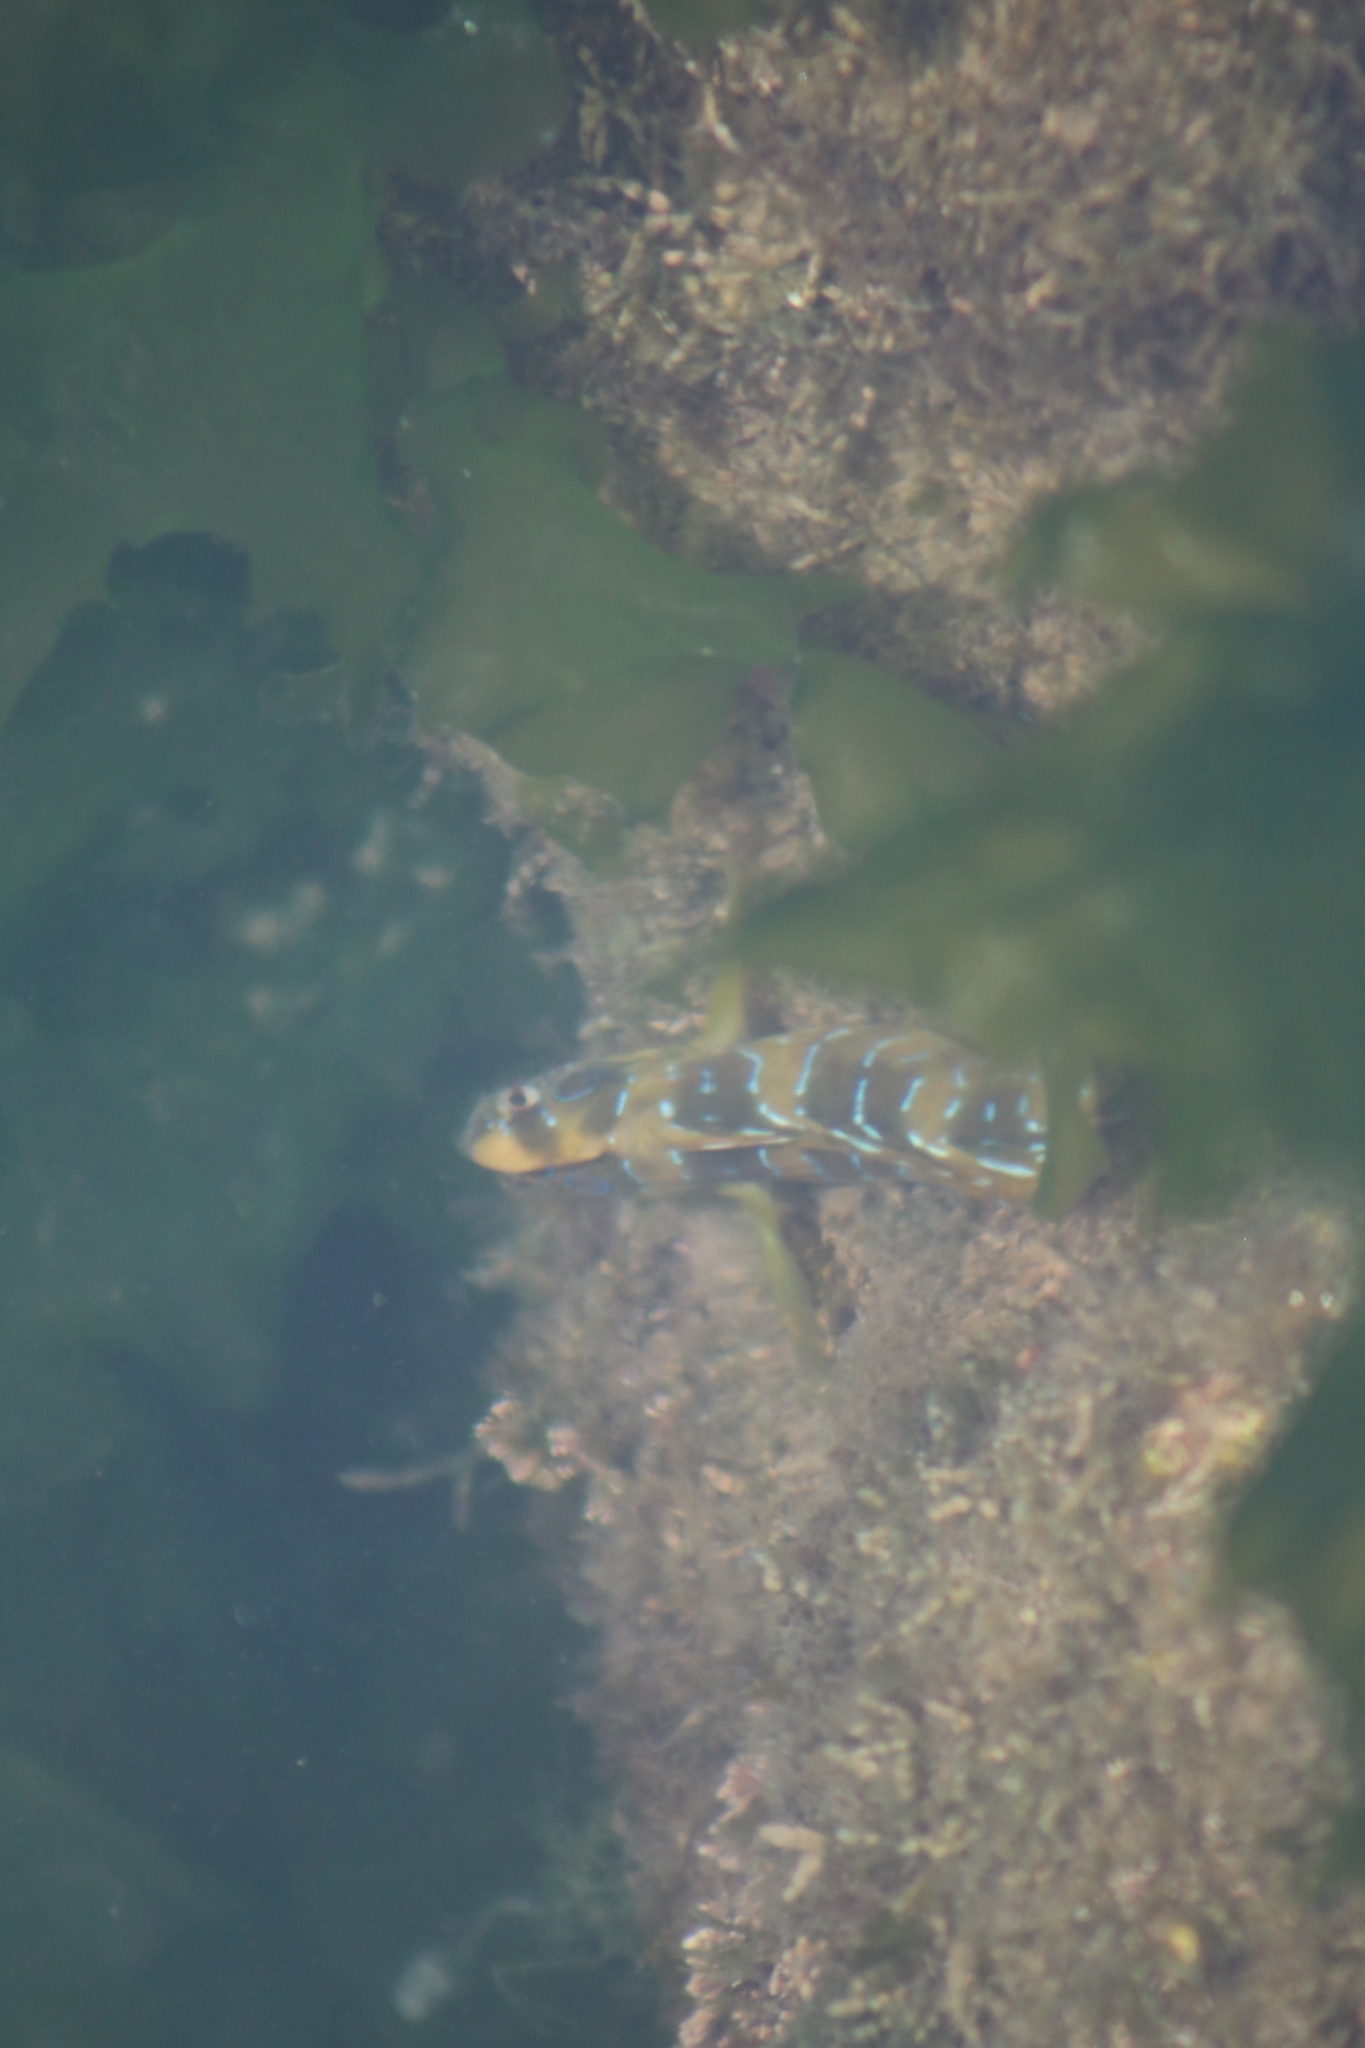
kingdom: Animalia
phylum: Chordata
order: Perciformes
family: Blenniidae
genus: Salaria
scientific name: Salaria pavo
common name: Peacock blenny
